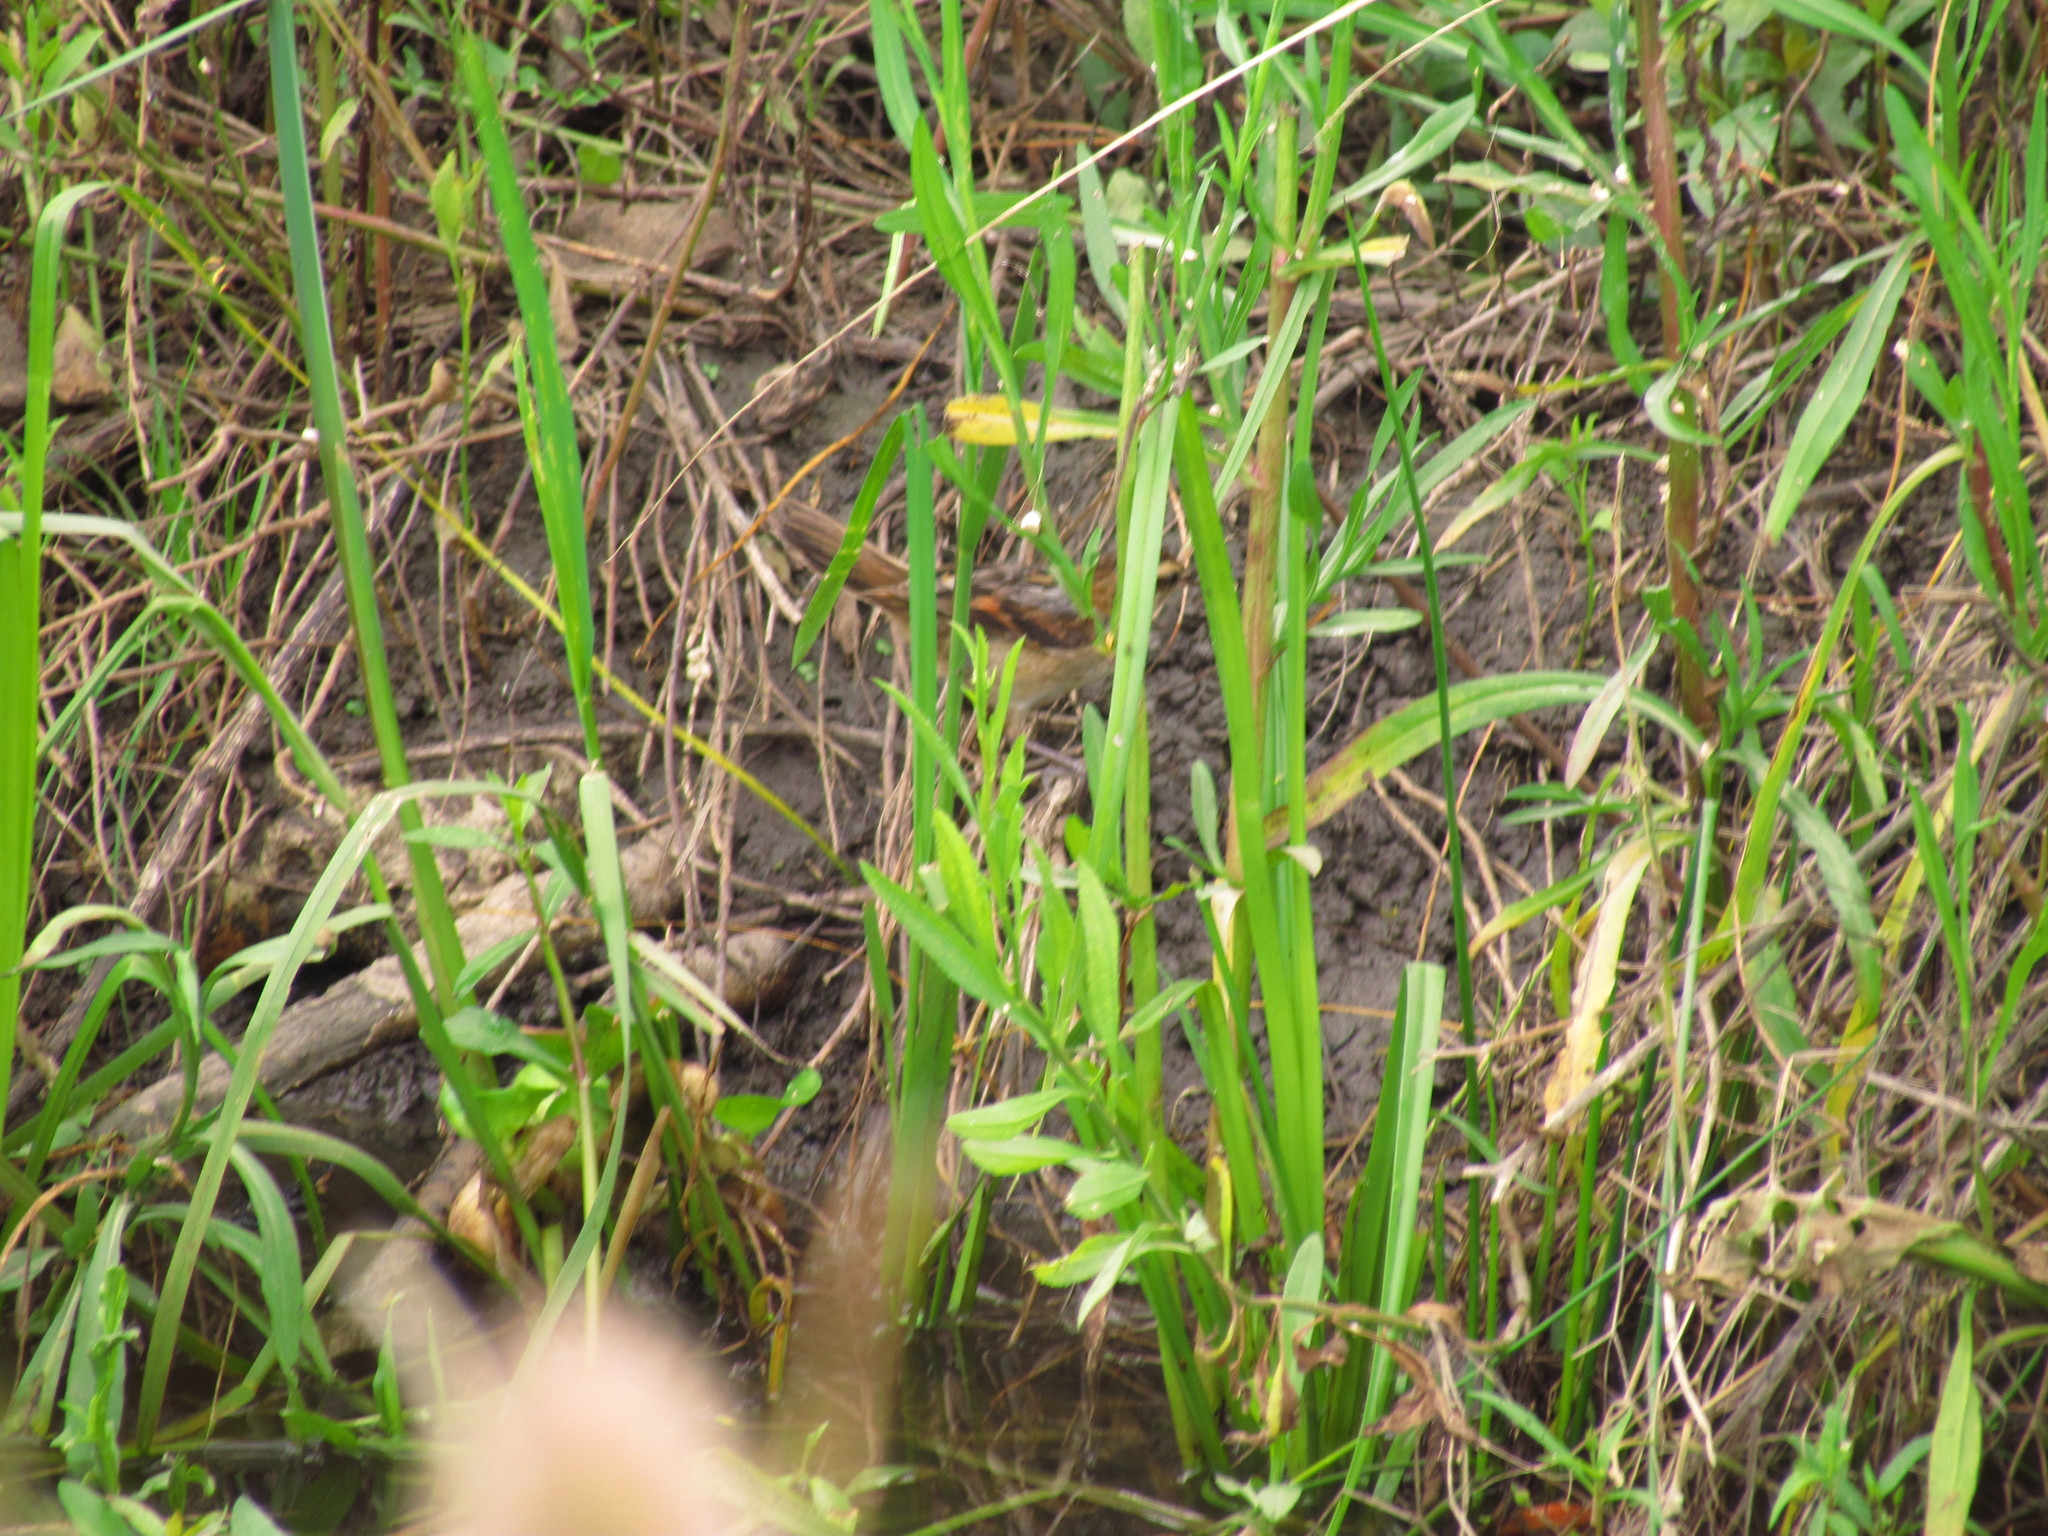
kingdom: Animalia
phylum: Chordata
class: Aves
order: Passeriformes
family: Furnariidae
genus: Phleocryptes
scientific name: Phleocryptes melanops
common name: Wren-like rushbird
